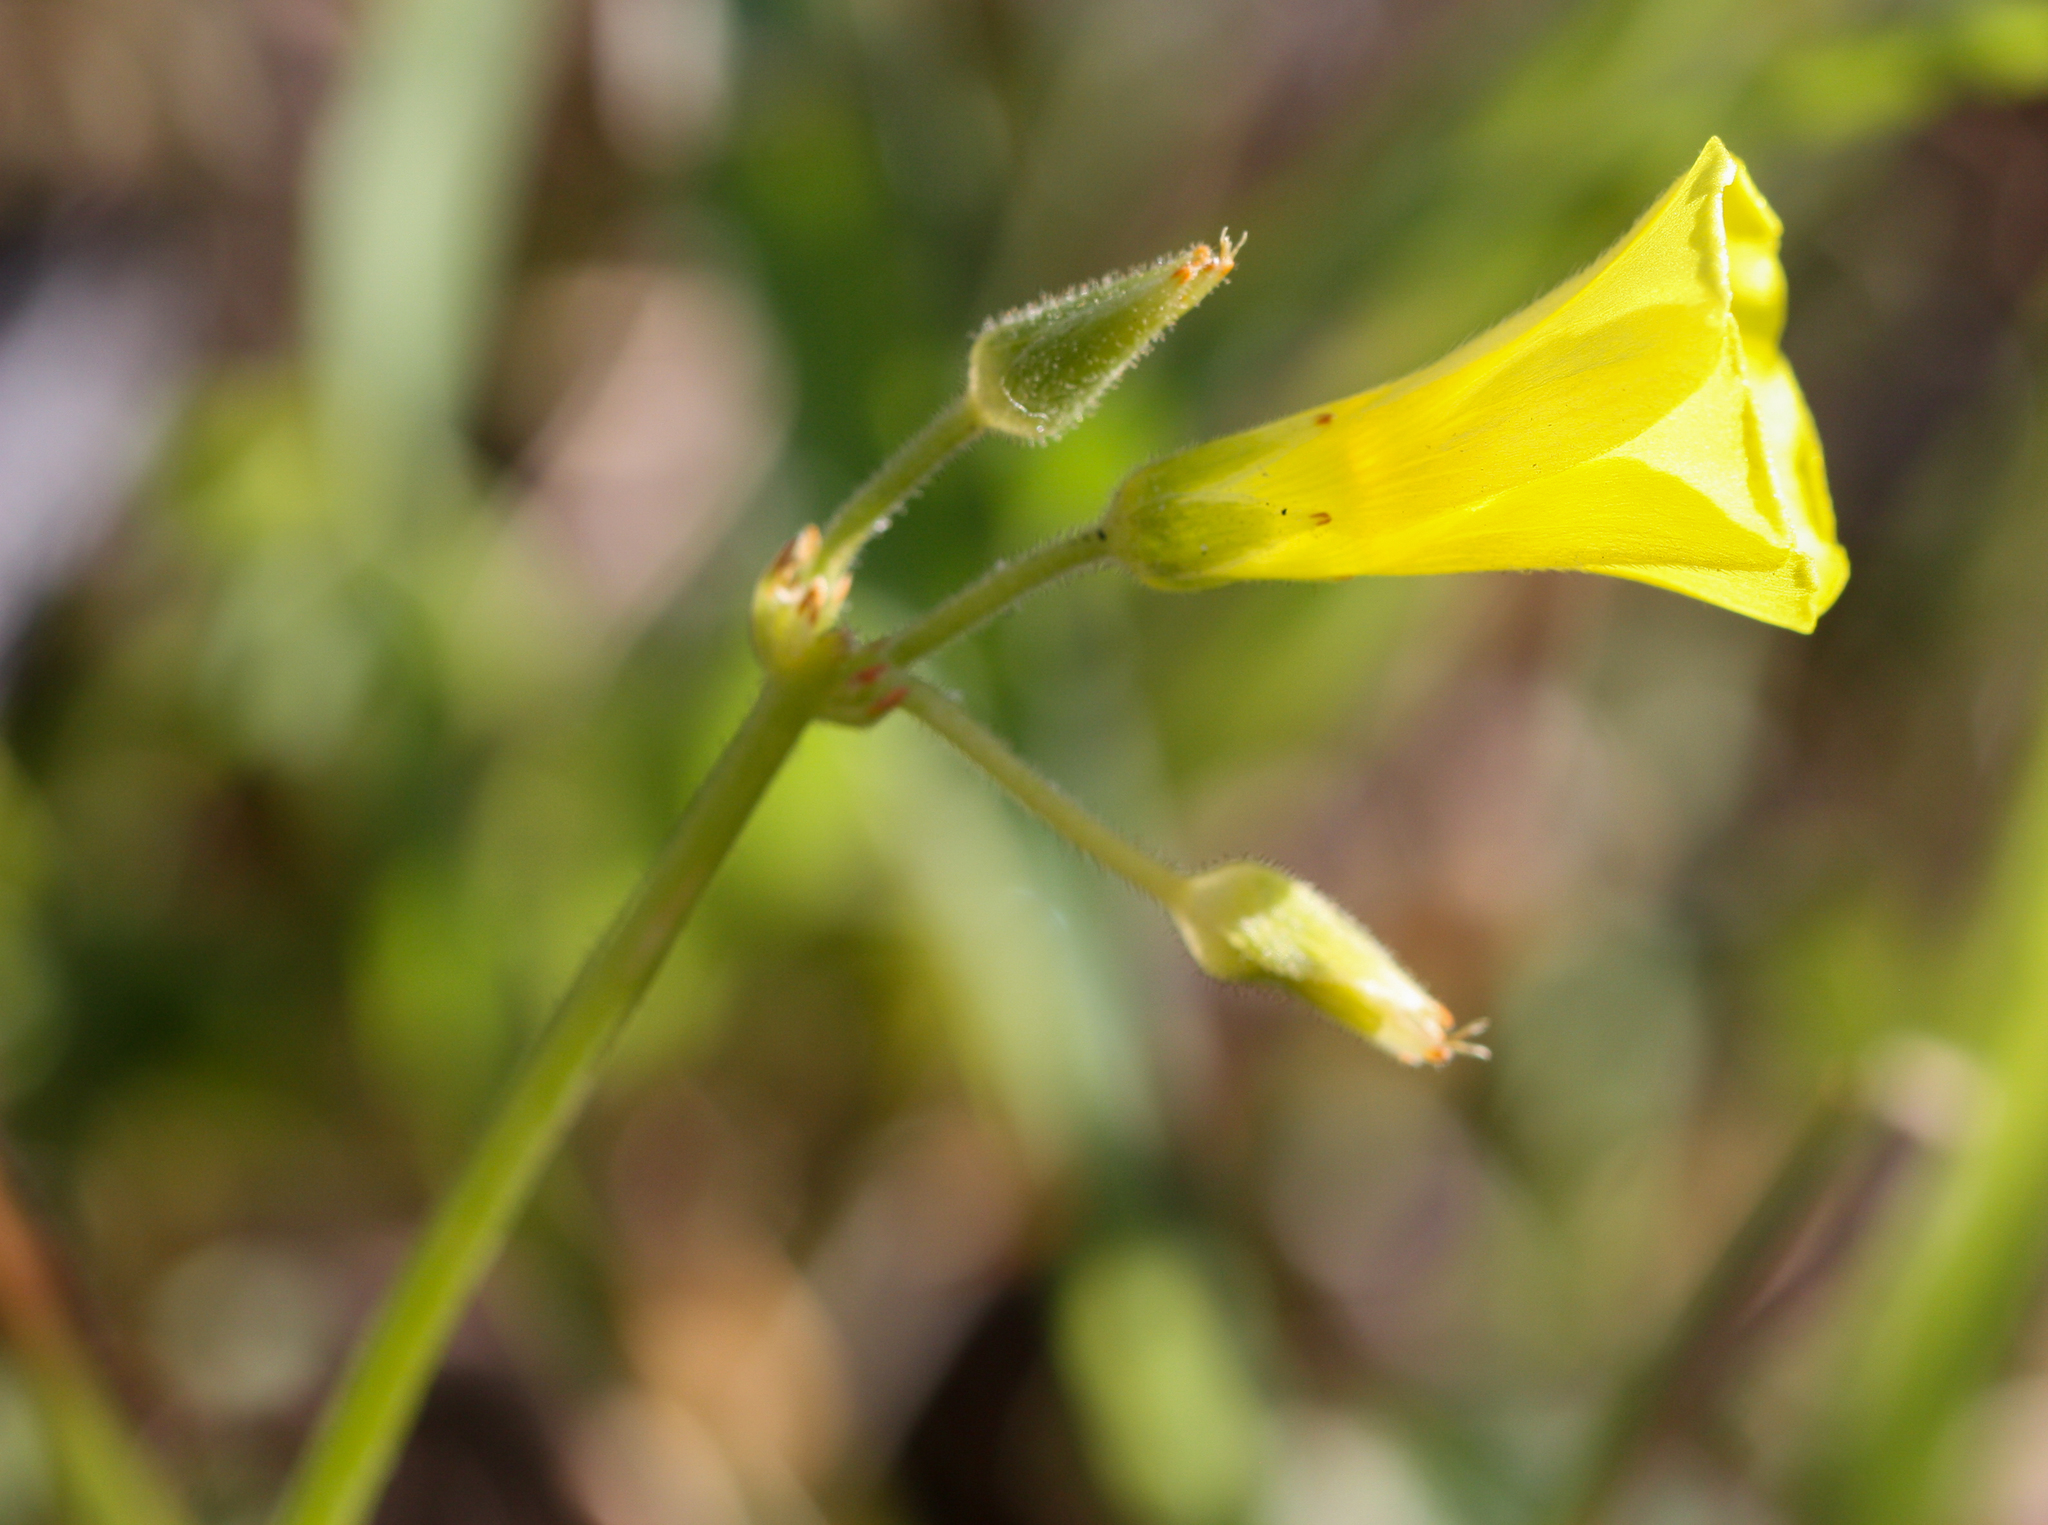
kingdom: Plantae
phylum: Tracheophyta
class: Magnoliopsida
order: Oxalidales
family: Oxalidaceae
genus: Oxalis
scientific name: Oxalis pes-caprae
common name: Bermuda-buttercup
